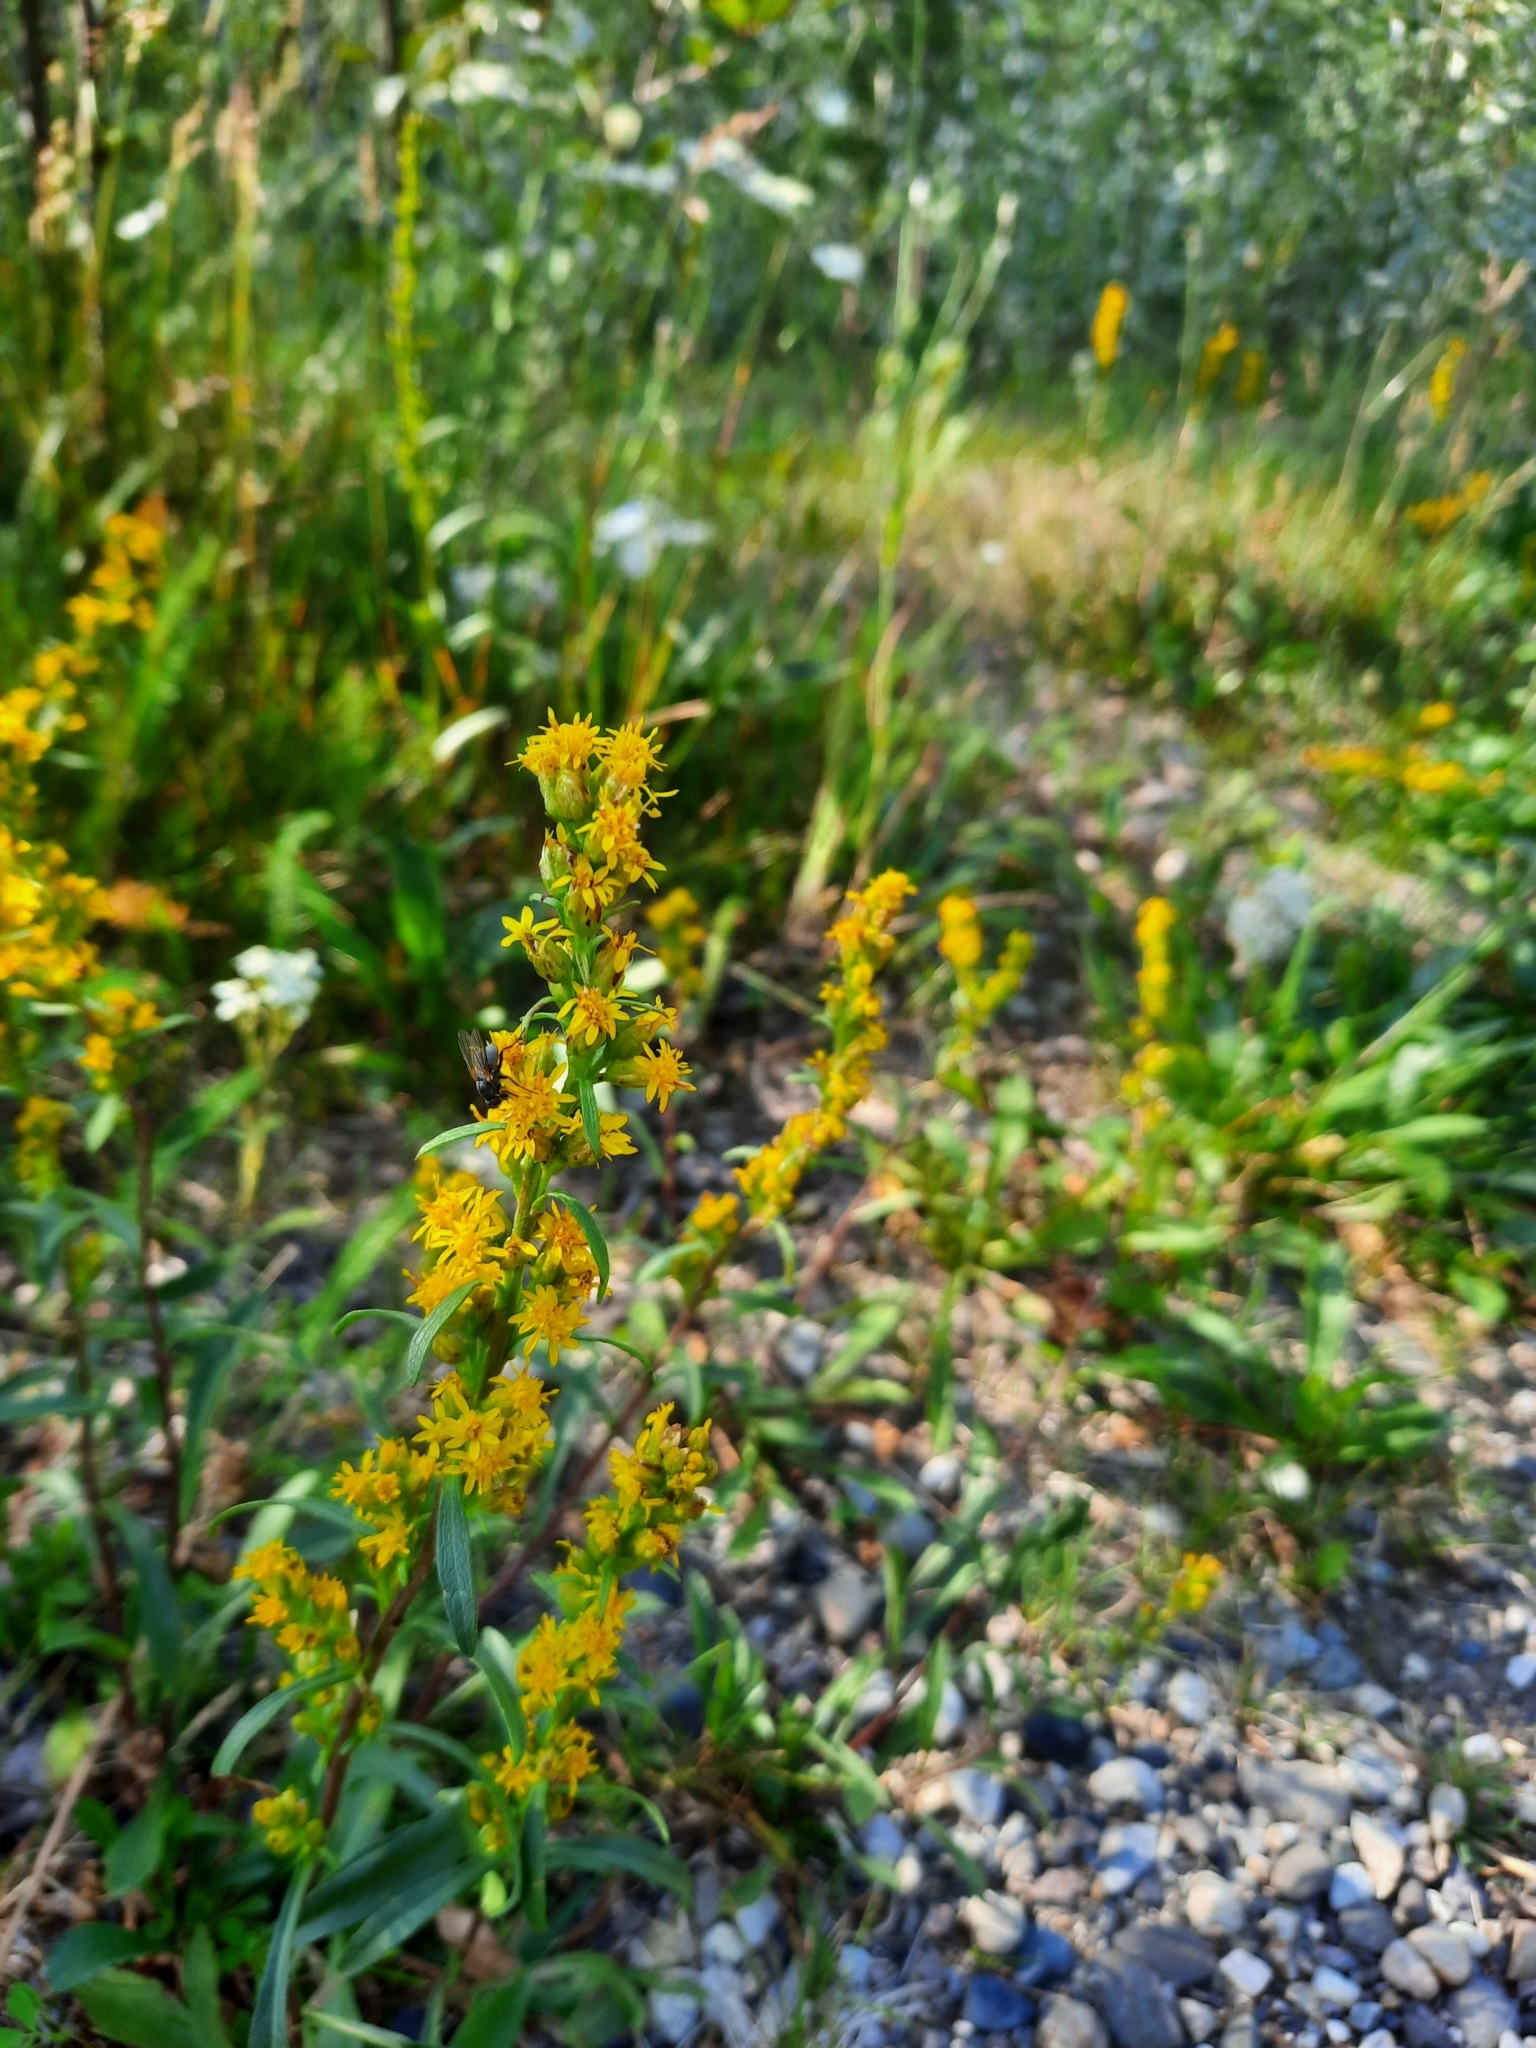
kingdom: Plantae
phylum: Tracheophyta
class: Magnoliopsida
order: Asterales
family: Asteraceae
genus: Solidago
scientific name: Solidago glutinosa
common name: Decumbent goldenrod
